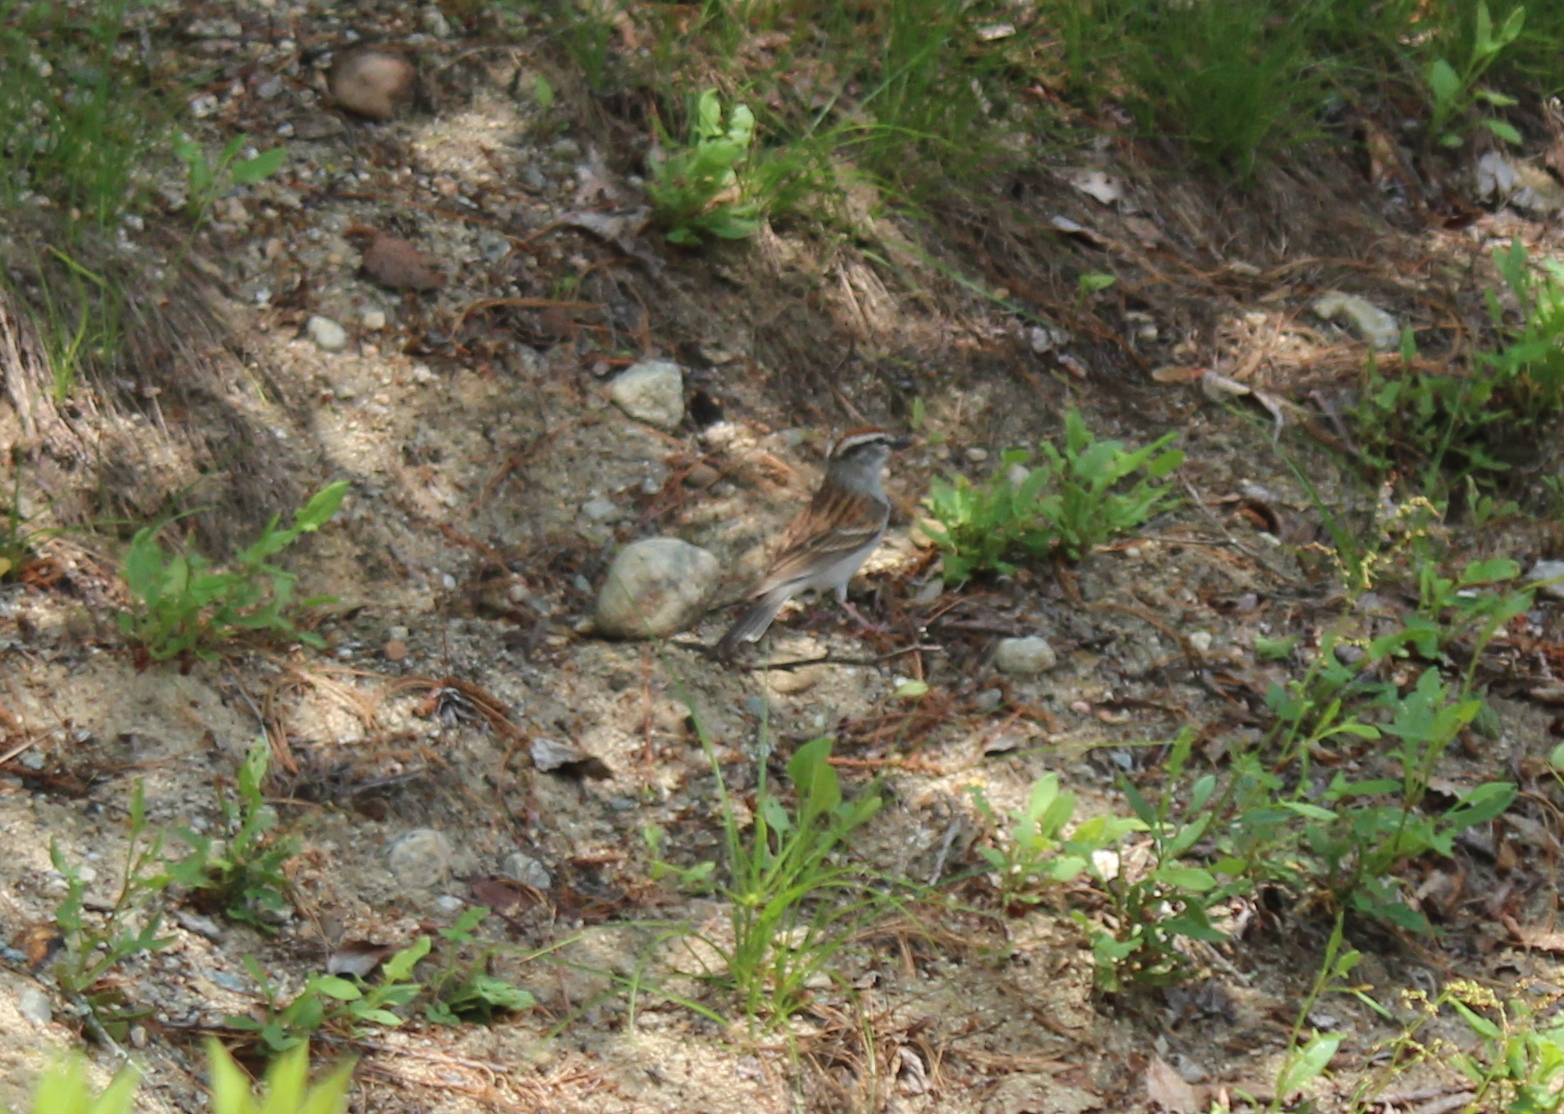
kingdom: Animalia
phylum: Chordata
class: Aves
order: Passeriformes
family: Passerellidae
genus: Spizella
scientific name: Spizella passerina
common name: Chipping sparrow
